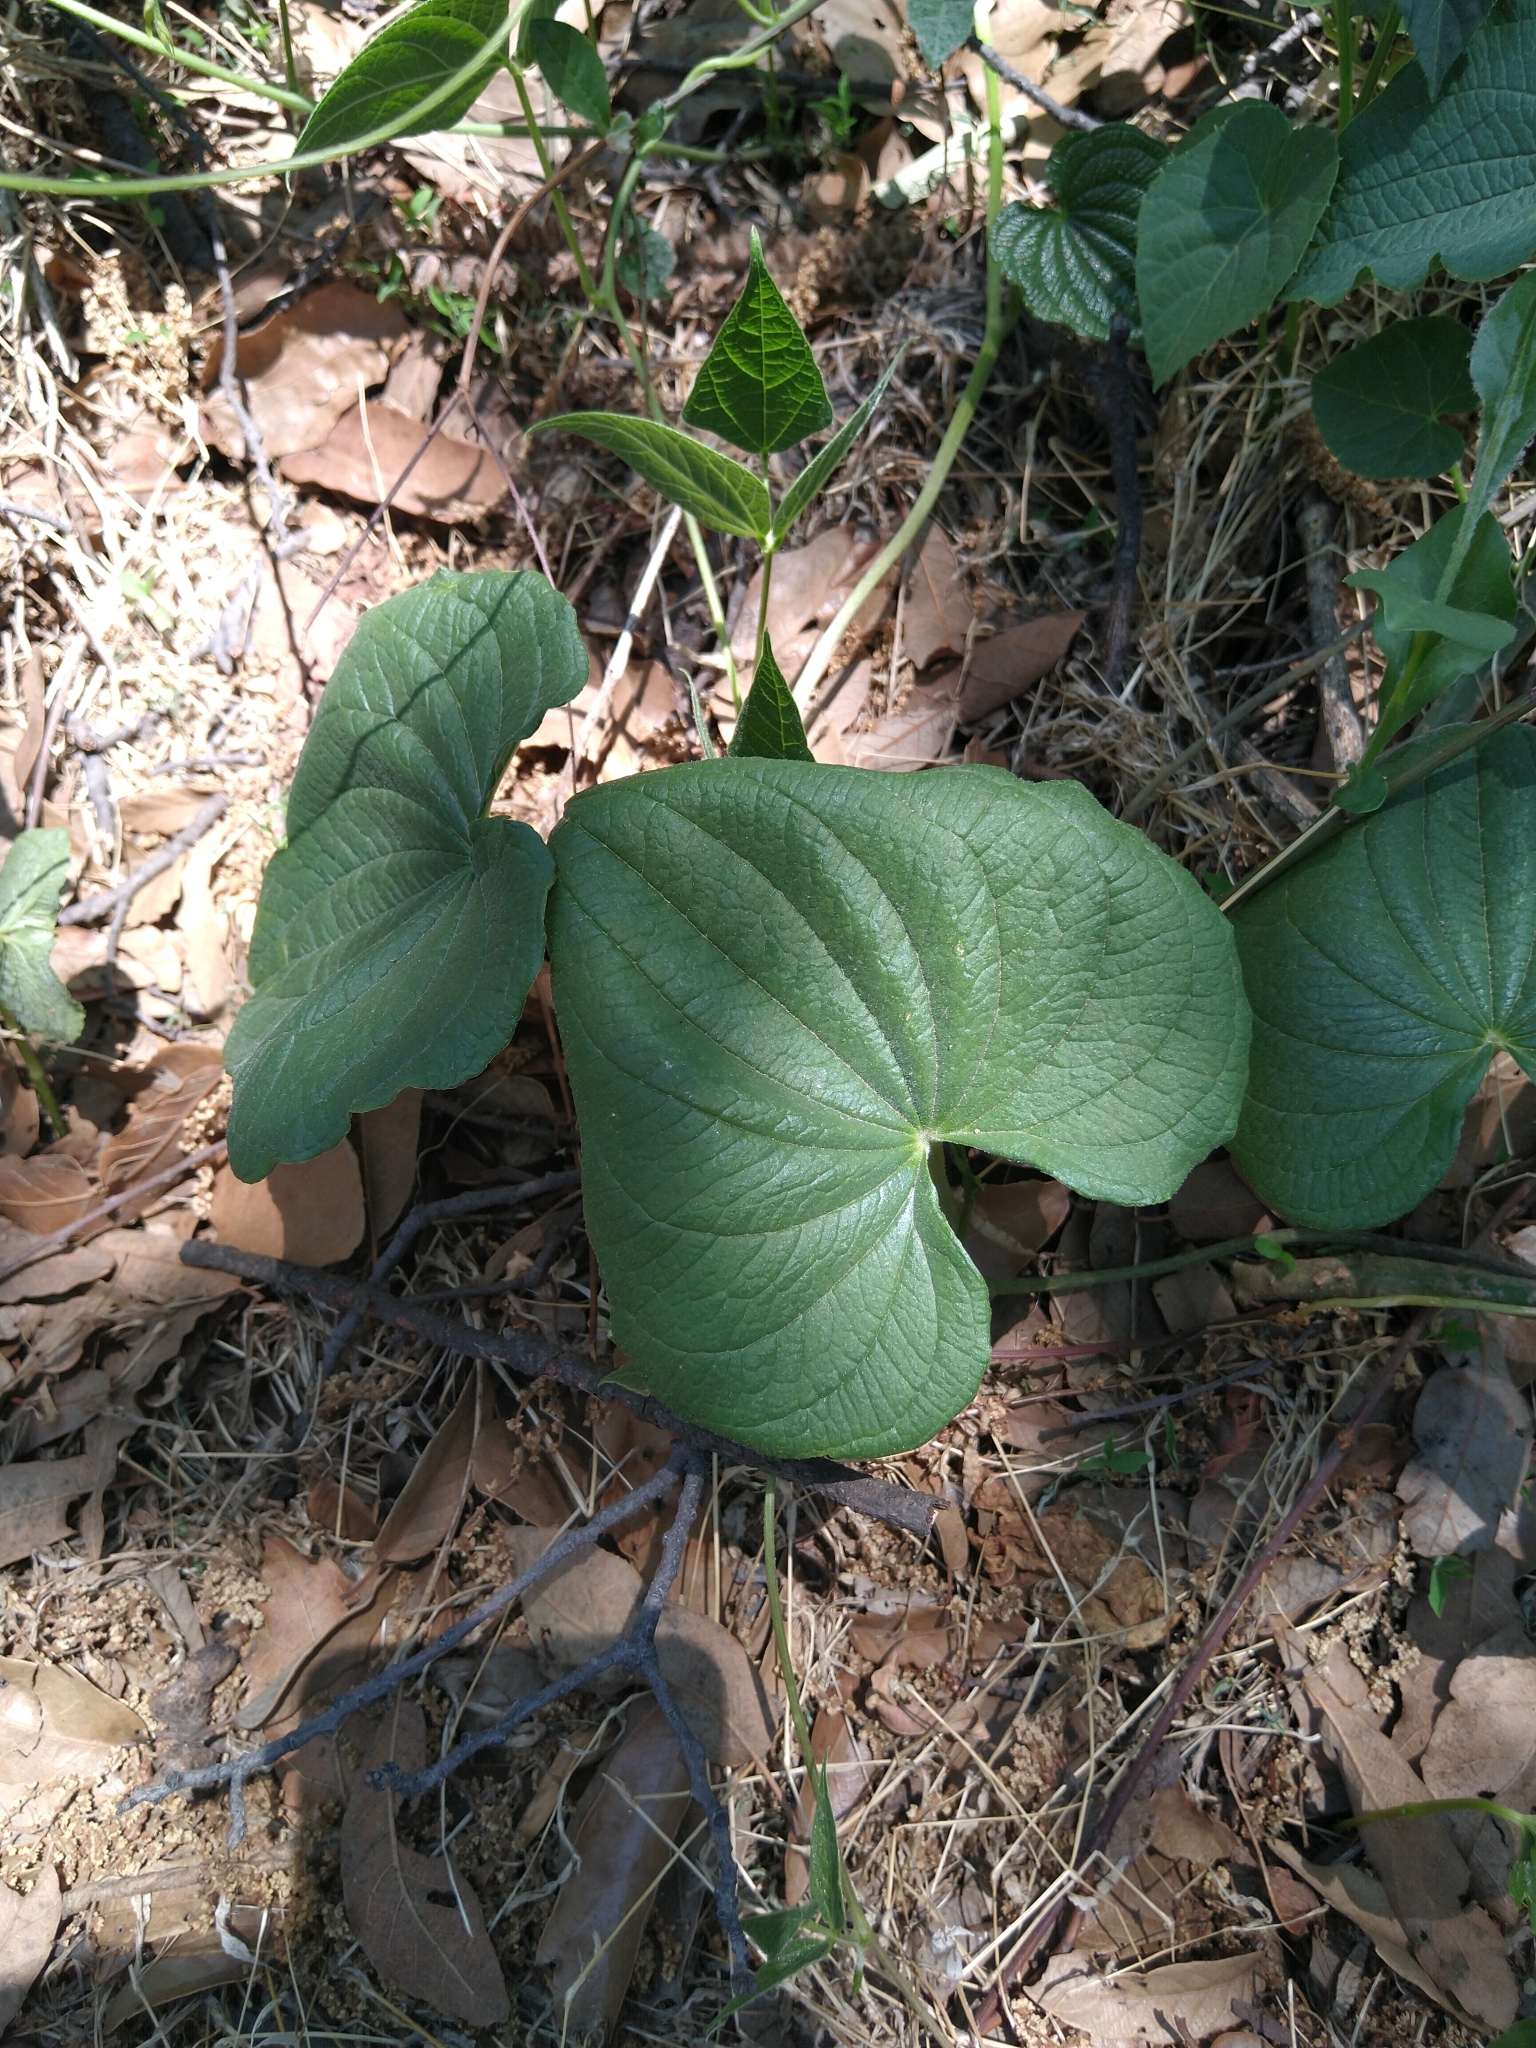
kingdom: Plantae
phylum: Tracheophyta
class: Liliopsida
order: Dioscoreales
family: Dioscoreaceae
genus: Dioscorea
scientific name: Dioscorea galeottiana
